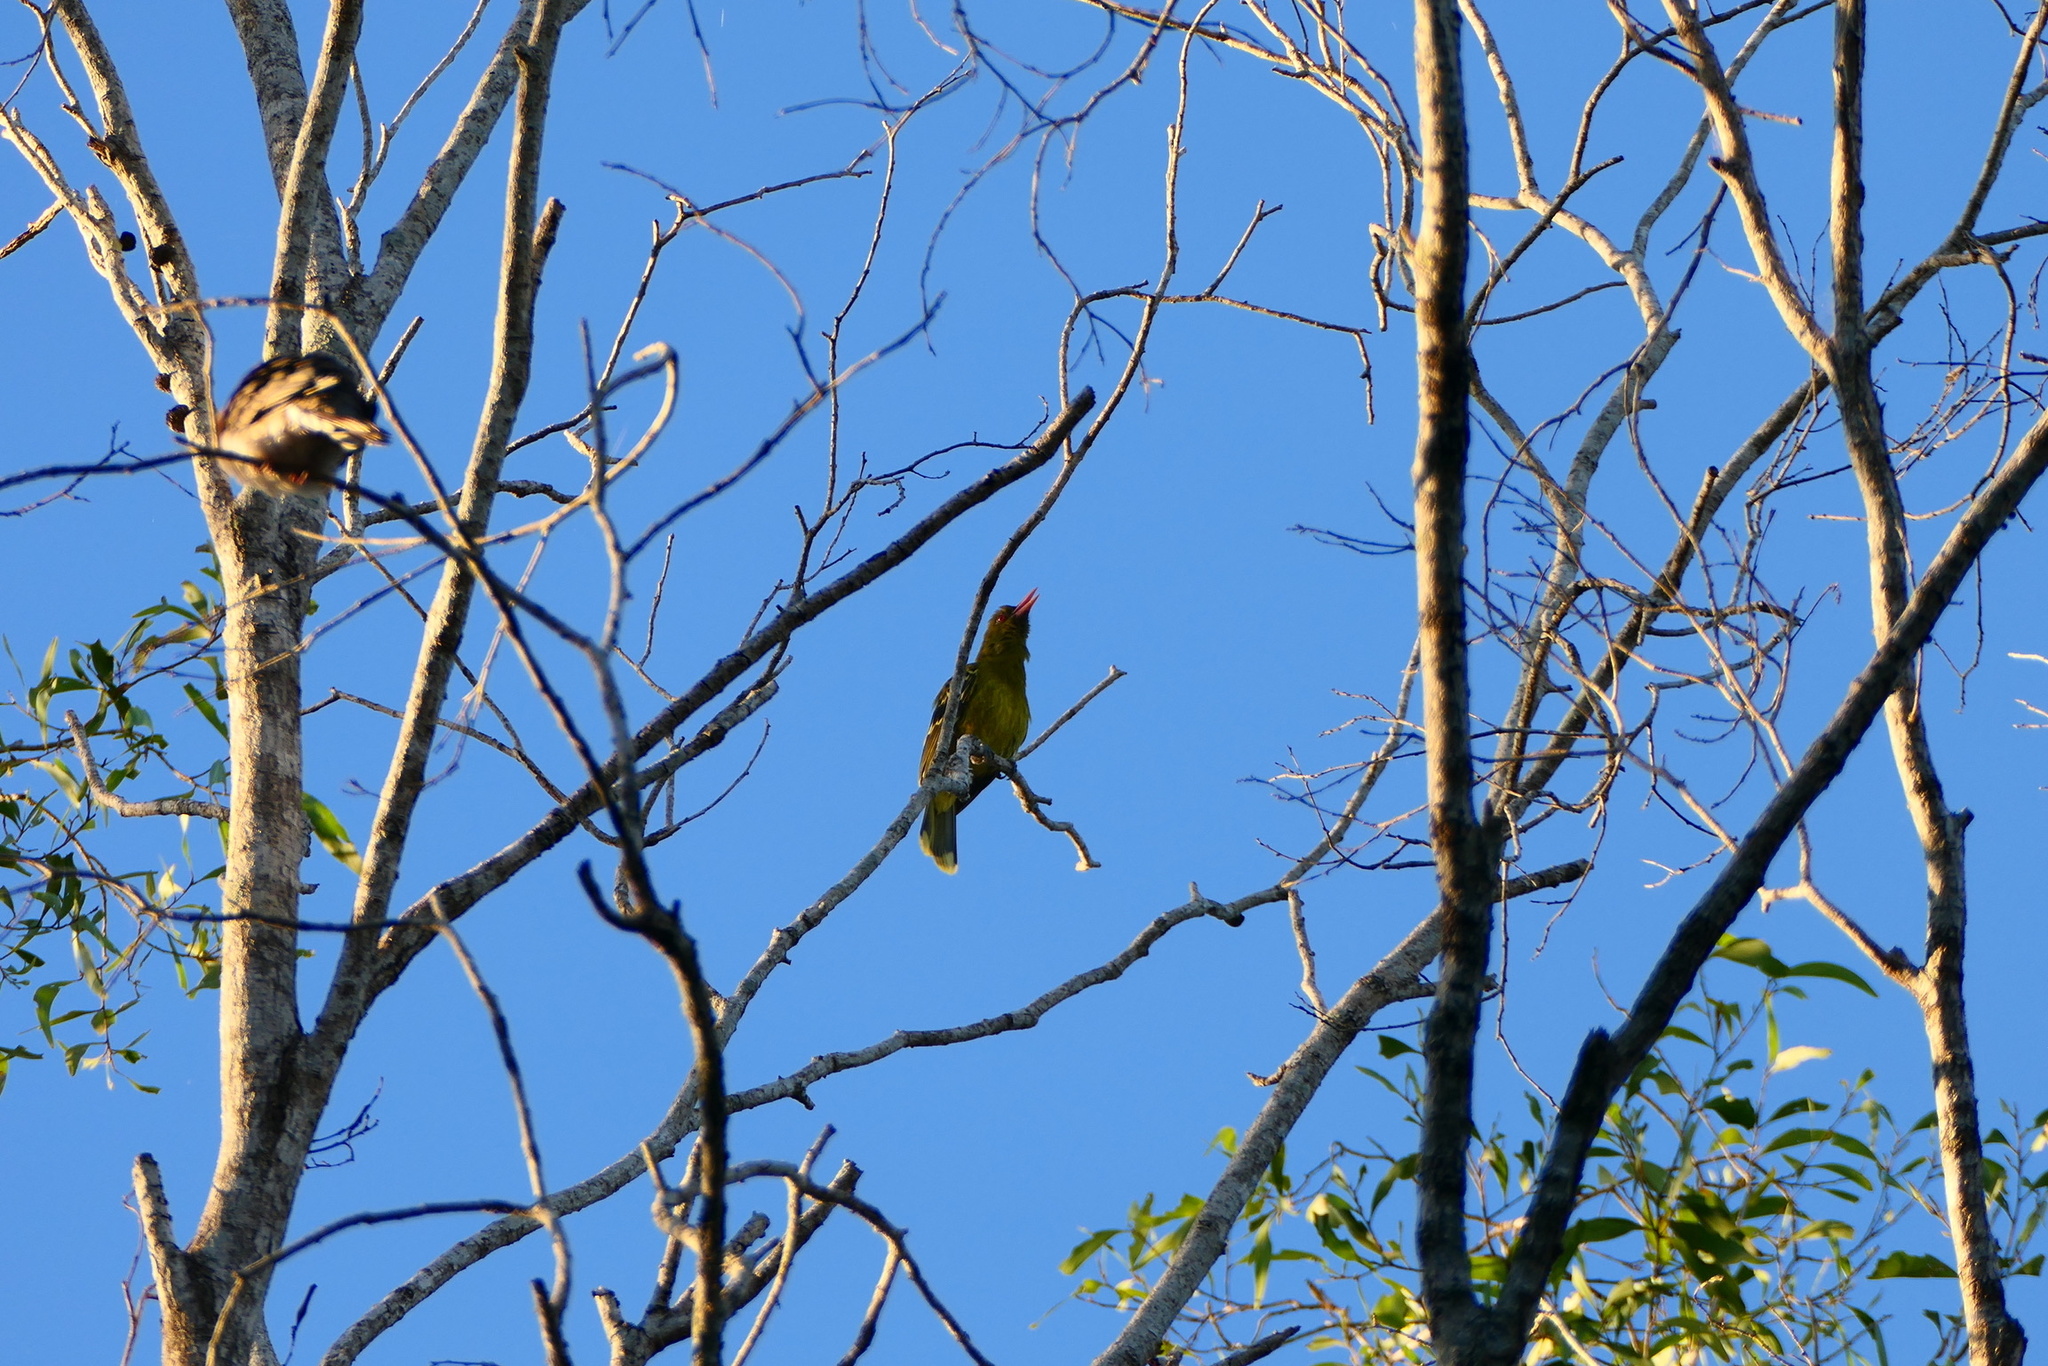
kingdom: Animalia
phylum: Chordata
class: Aves
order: Passeriformes
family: Oriolidae
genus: Oriolus
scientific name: Oriolus flavocinctus
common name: Green oriole
